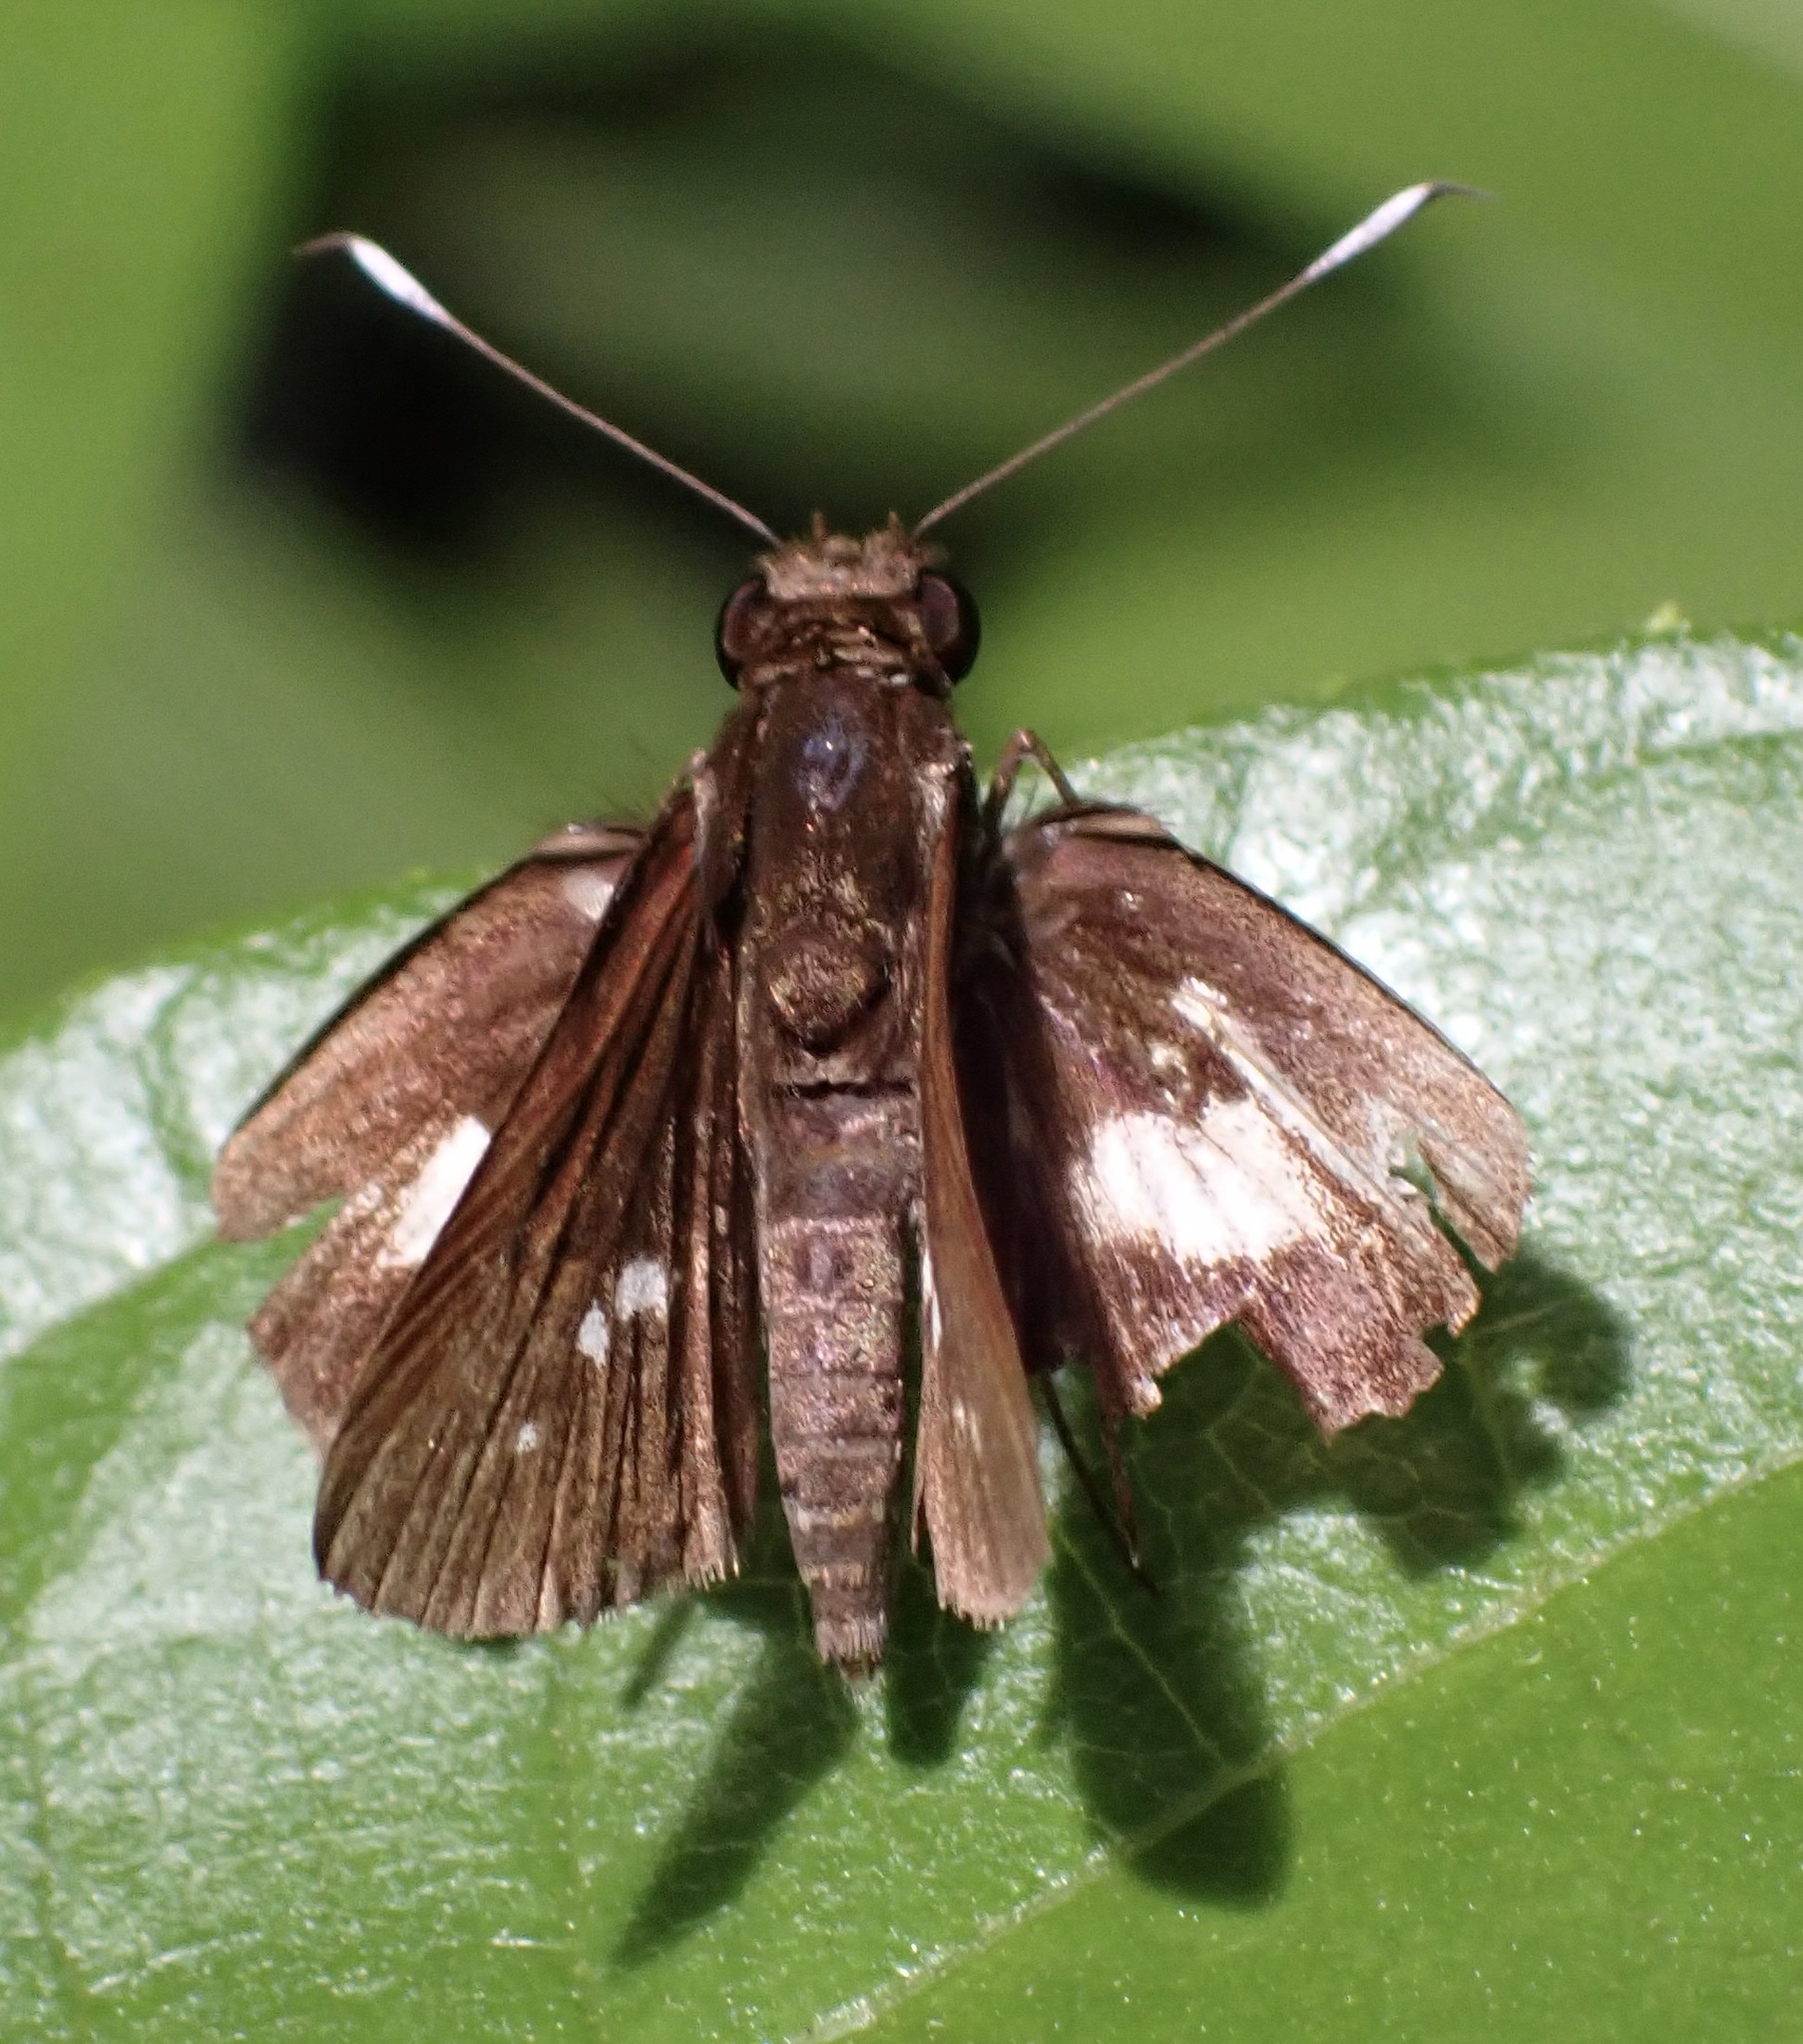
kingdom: Animalia
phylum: Arthropoda
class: Insecta
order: Lepidoptera
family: Hesperiidae
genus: Sabera
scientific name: Sabera caesina
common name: White-clubbed swift
